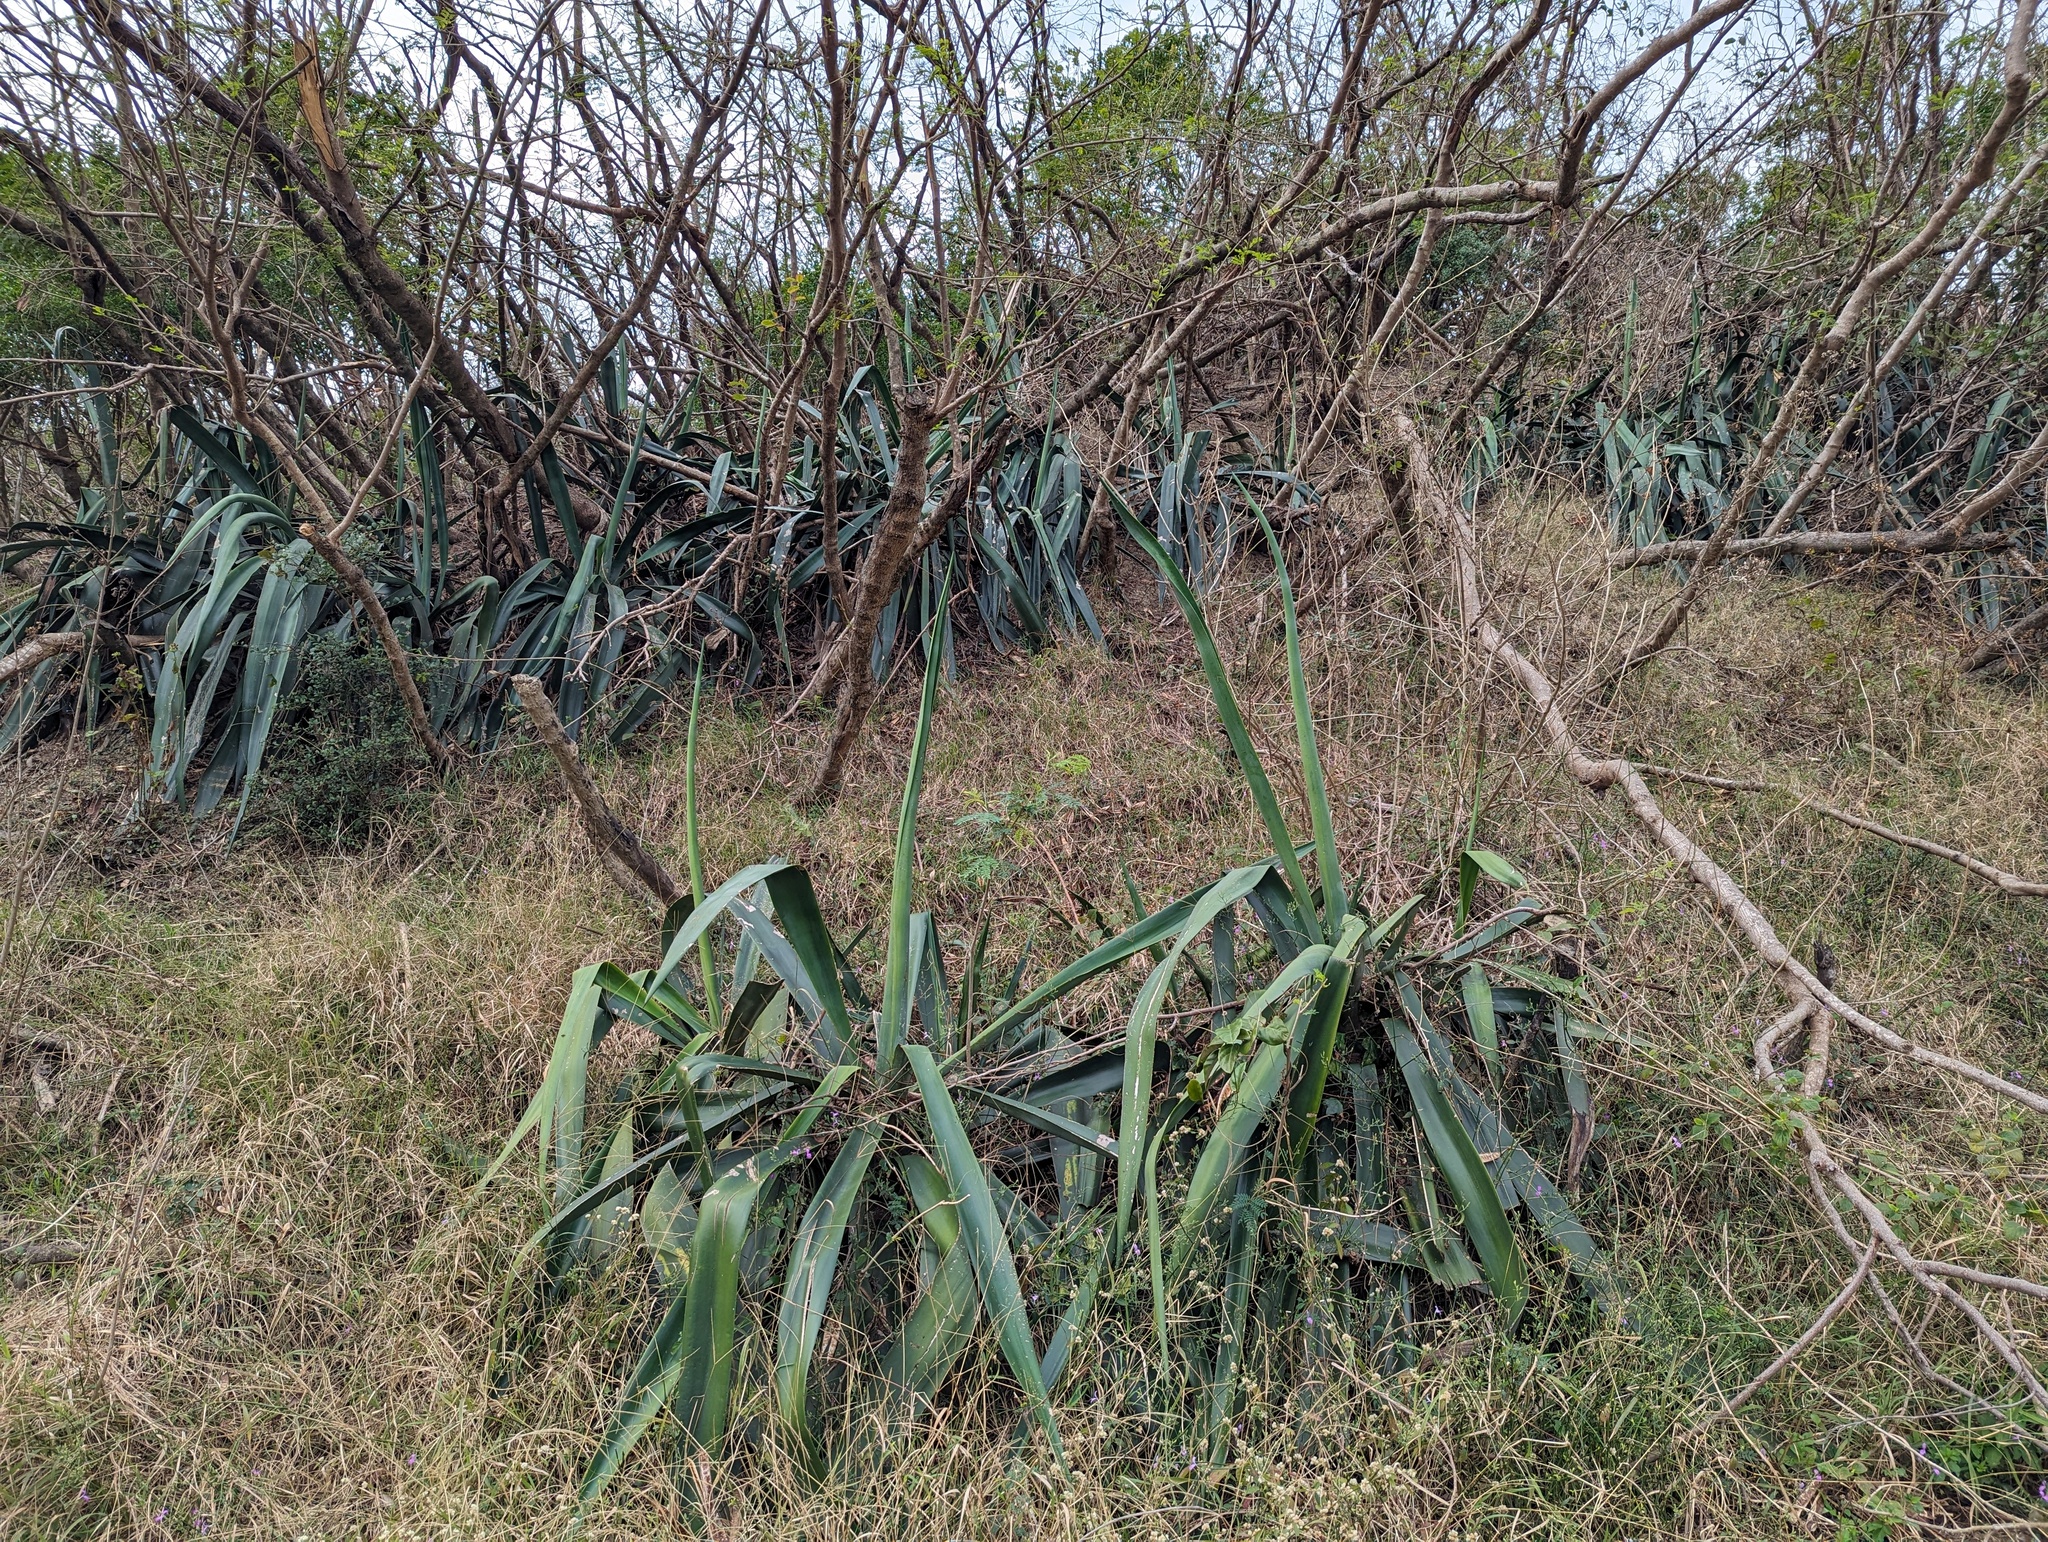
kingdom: Plantae
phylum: Tracheophyta
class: Liliopsida
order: Asparagales
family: Asparagaceae
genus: Agave
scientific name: Agave sisalana
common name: Sisal hemp
